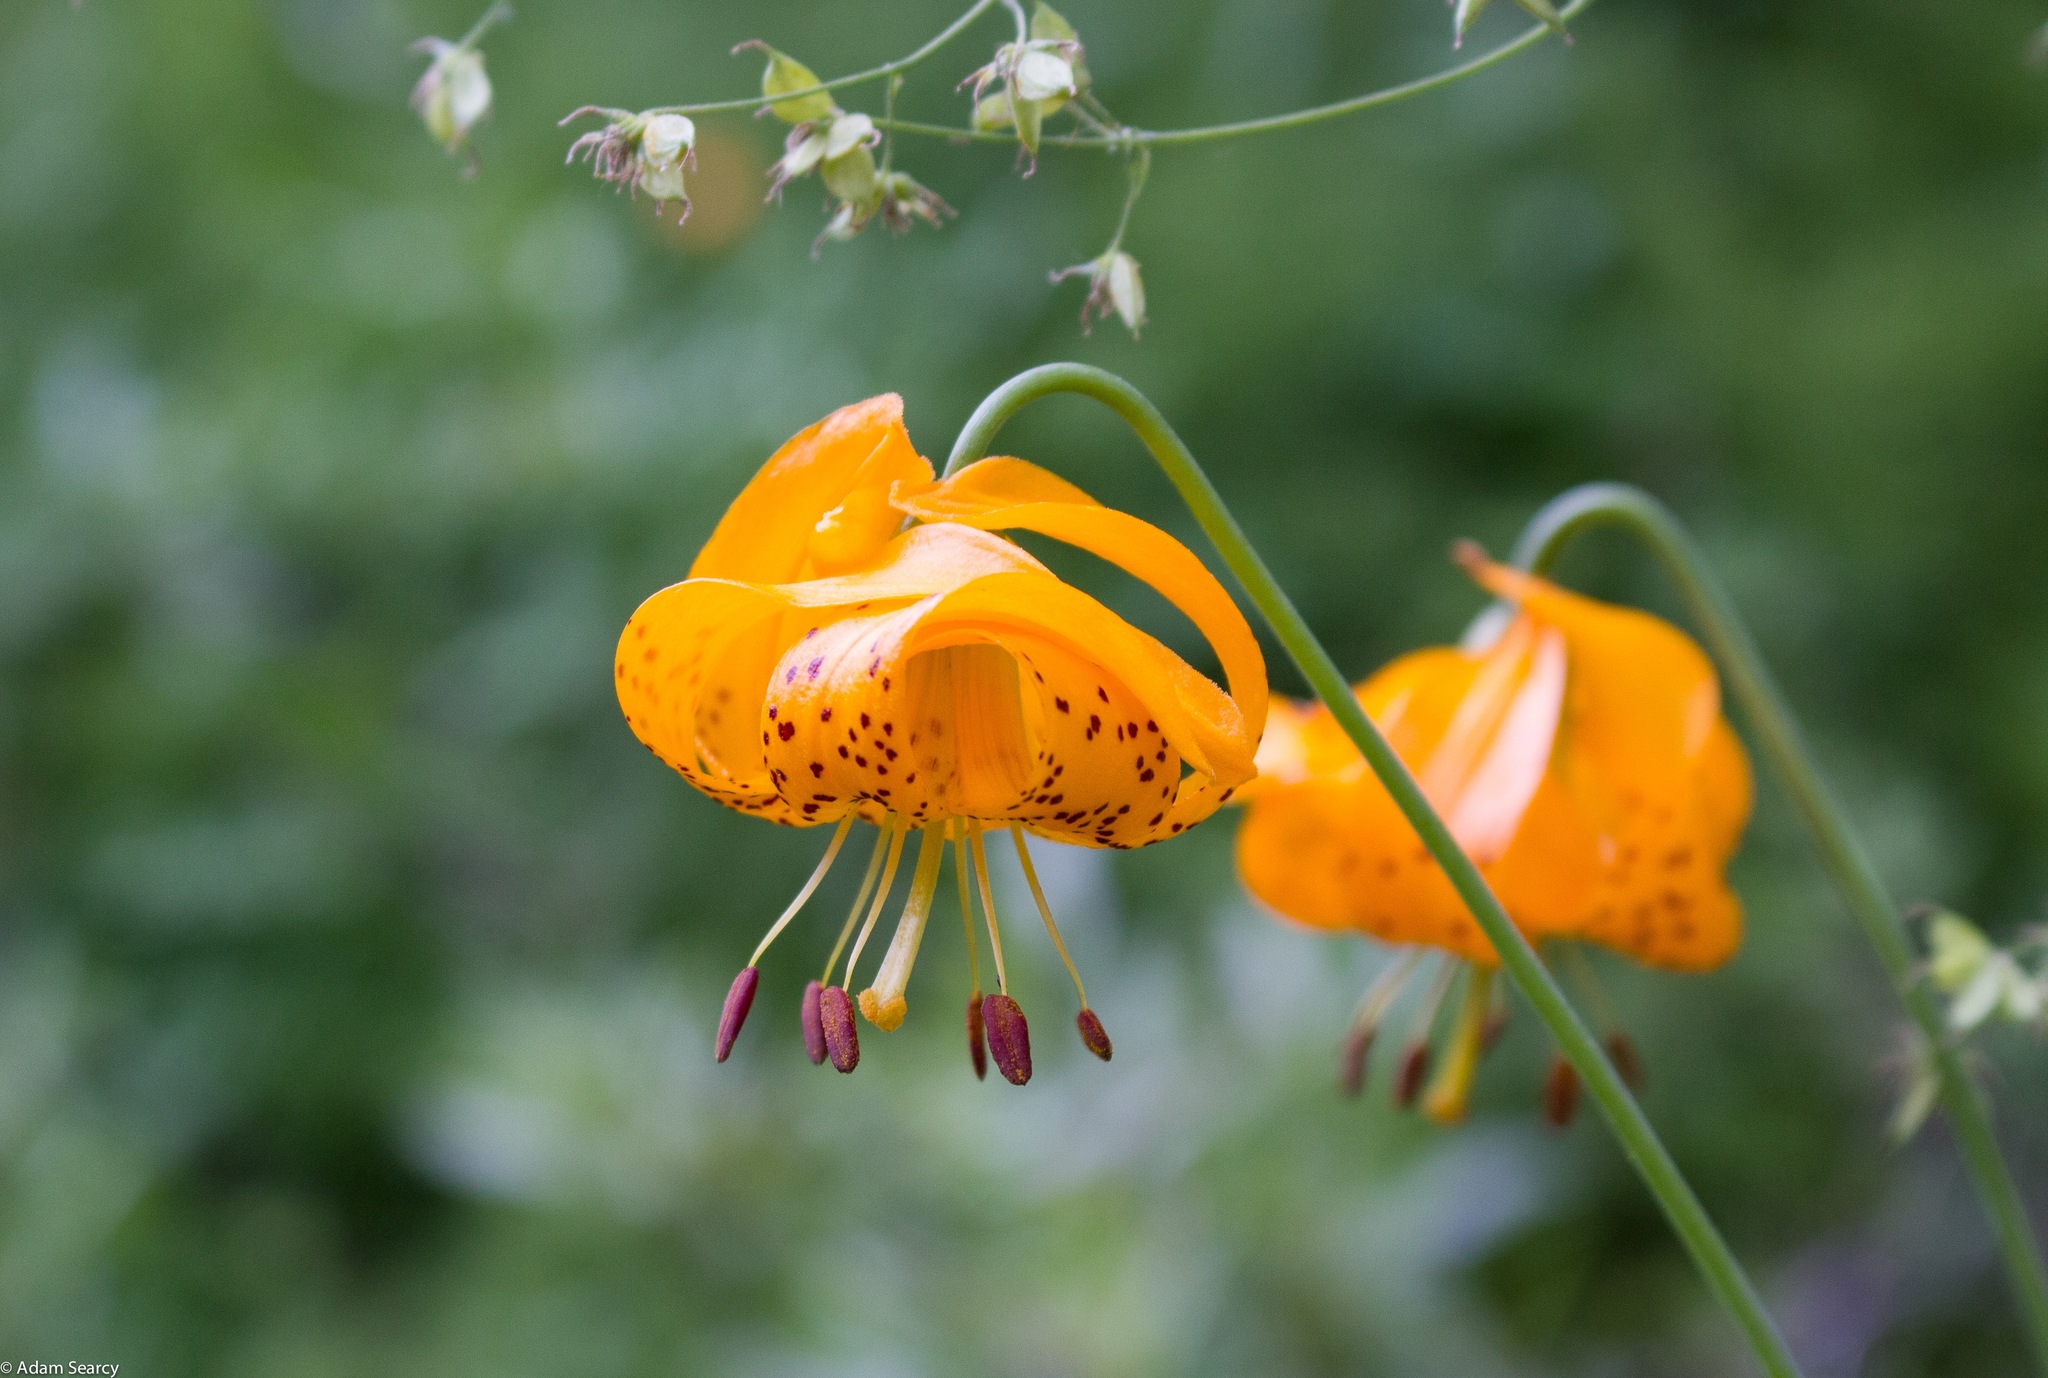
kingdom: Plantae
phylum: Tracheophyta
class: Liliopsida
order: Liliales
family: Liliaceae
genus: Lilium
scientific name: Lilium kelleyanum
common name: Kelley's lily
